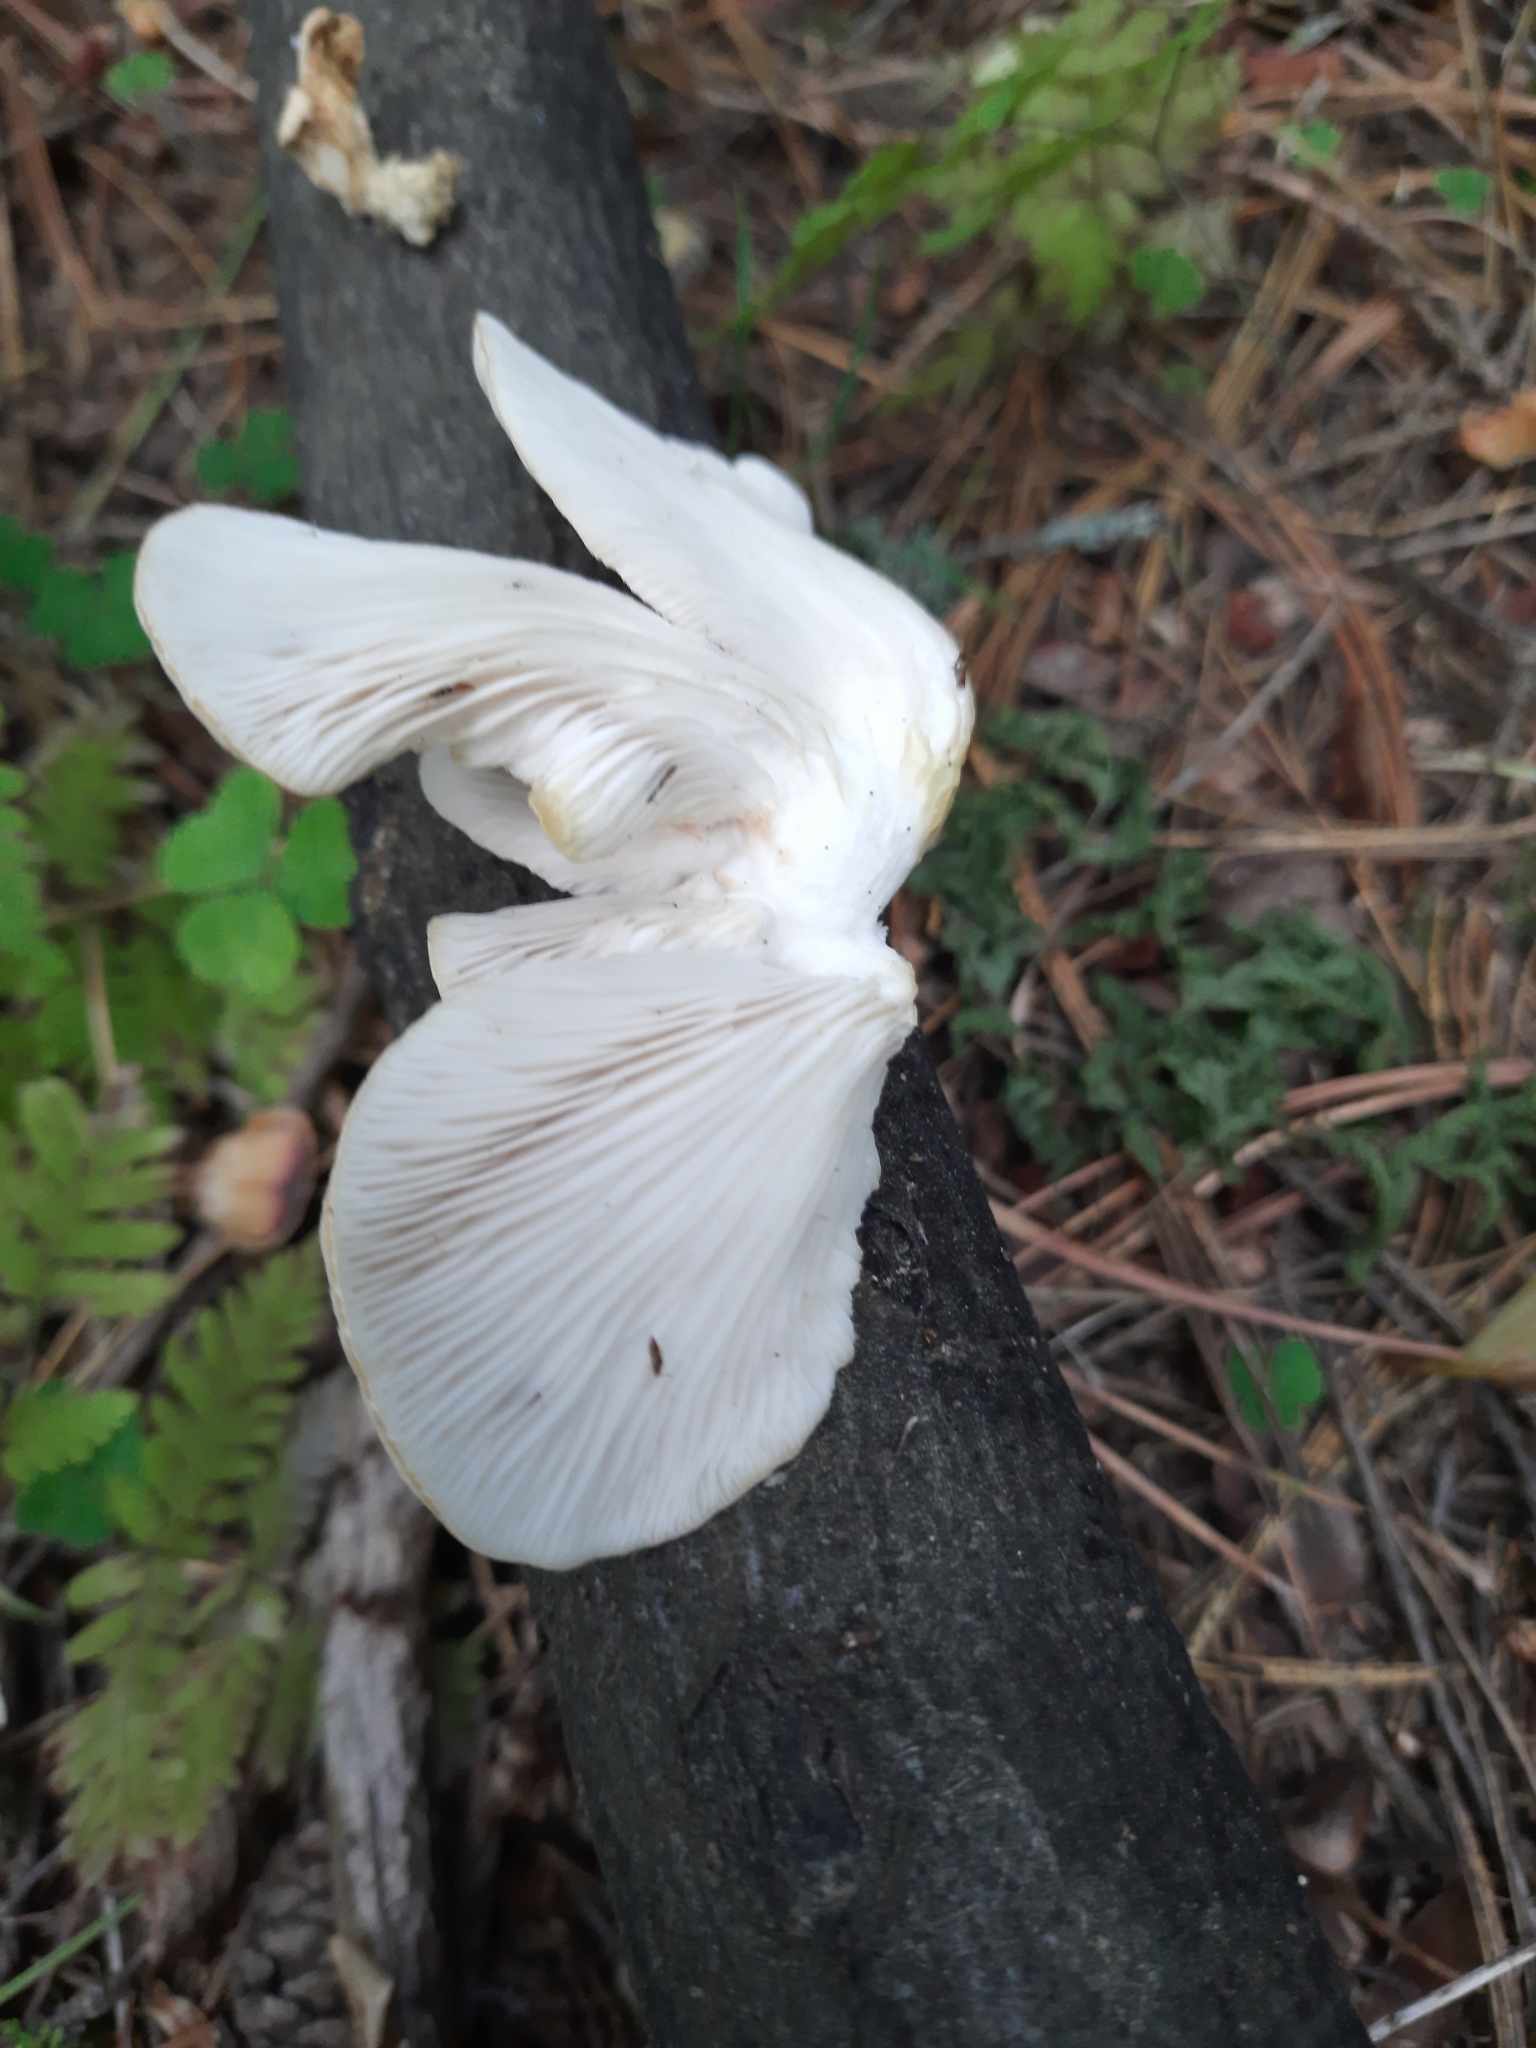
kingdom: Fungi
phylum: Basidiomycota
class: Agaricomycetes
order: Agaricales
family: Pleurotaceae
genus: Pleurotus
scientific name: Pleurotus pulmonarius
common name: Pale oyster
